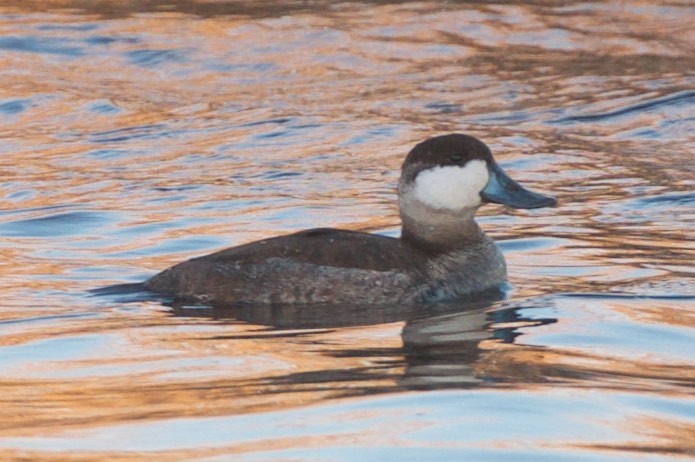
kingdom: Animalia
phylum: Chordata
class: Aves
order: Anseriformes
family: Anatidae
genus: Oxyura
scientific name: Oxyura jamaicensis
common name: Ruddy duck
